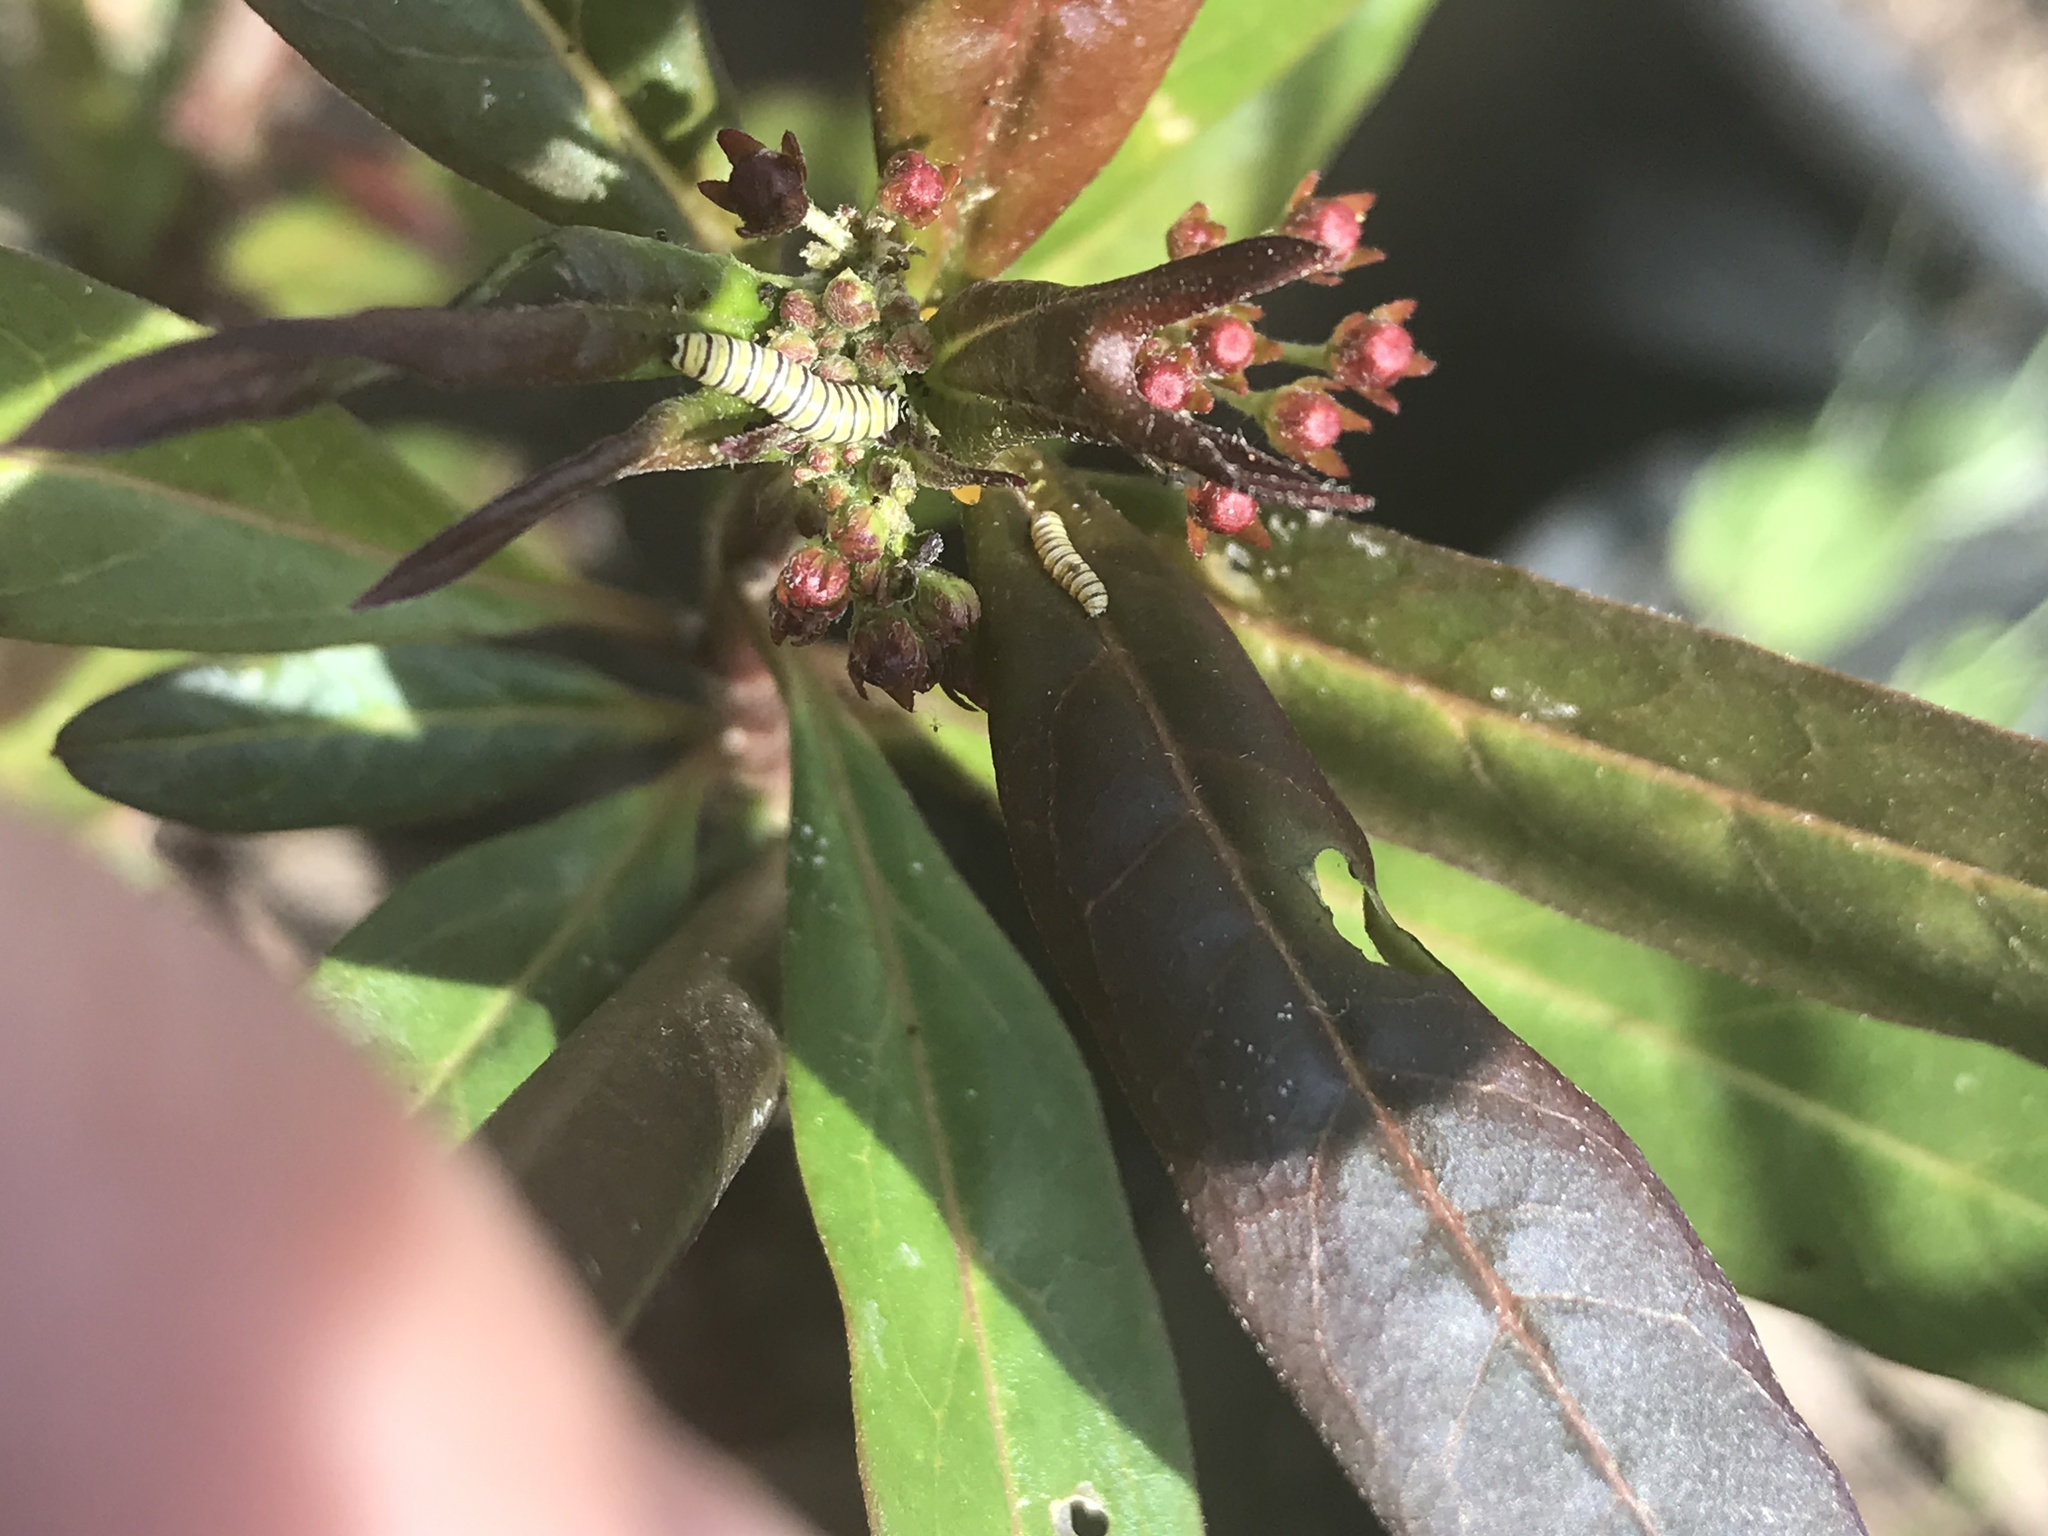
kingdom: Animalia
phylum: Arthropoda
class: Insecta
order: Lepidoptera
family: Nymphalidae
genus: Danaus
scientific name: Danaus plexippus
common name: Monarch
